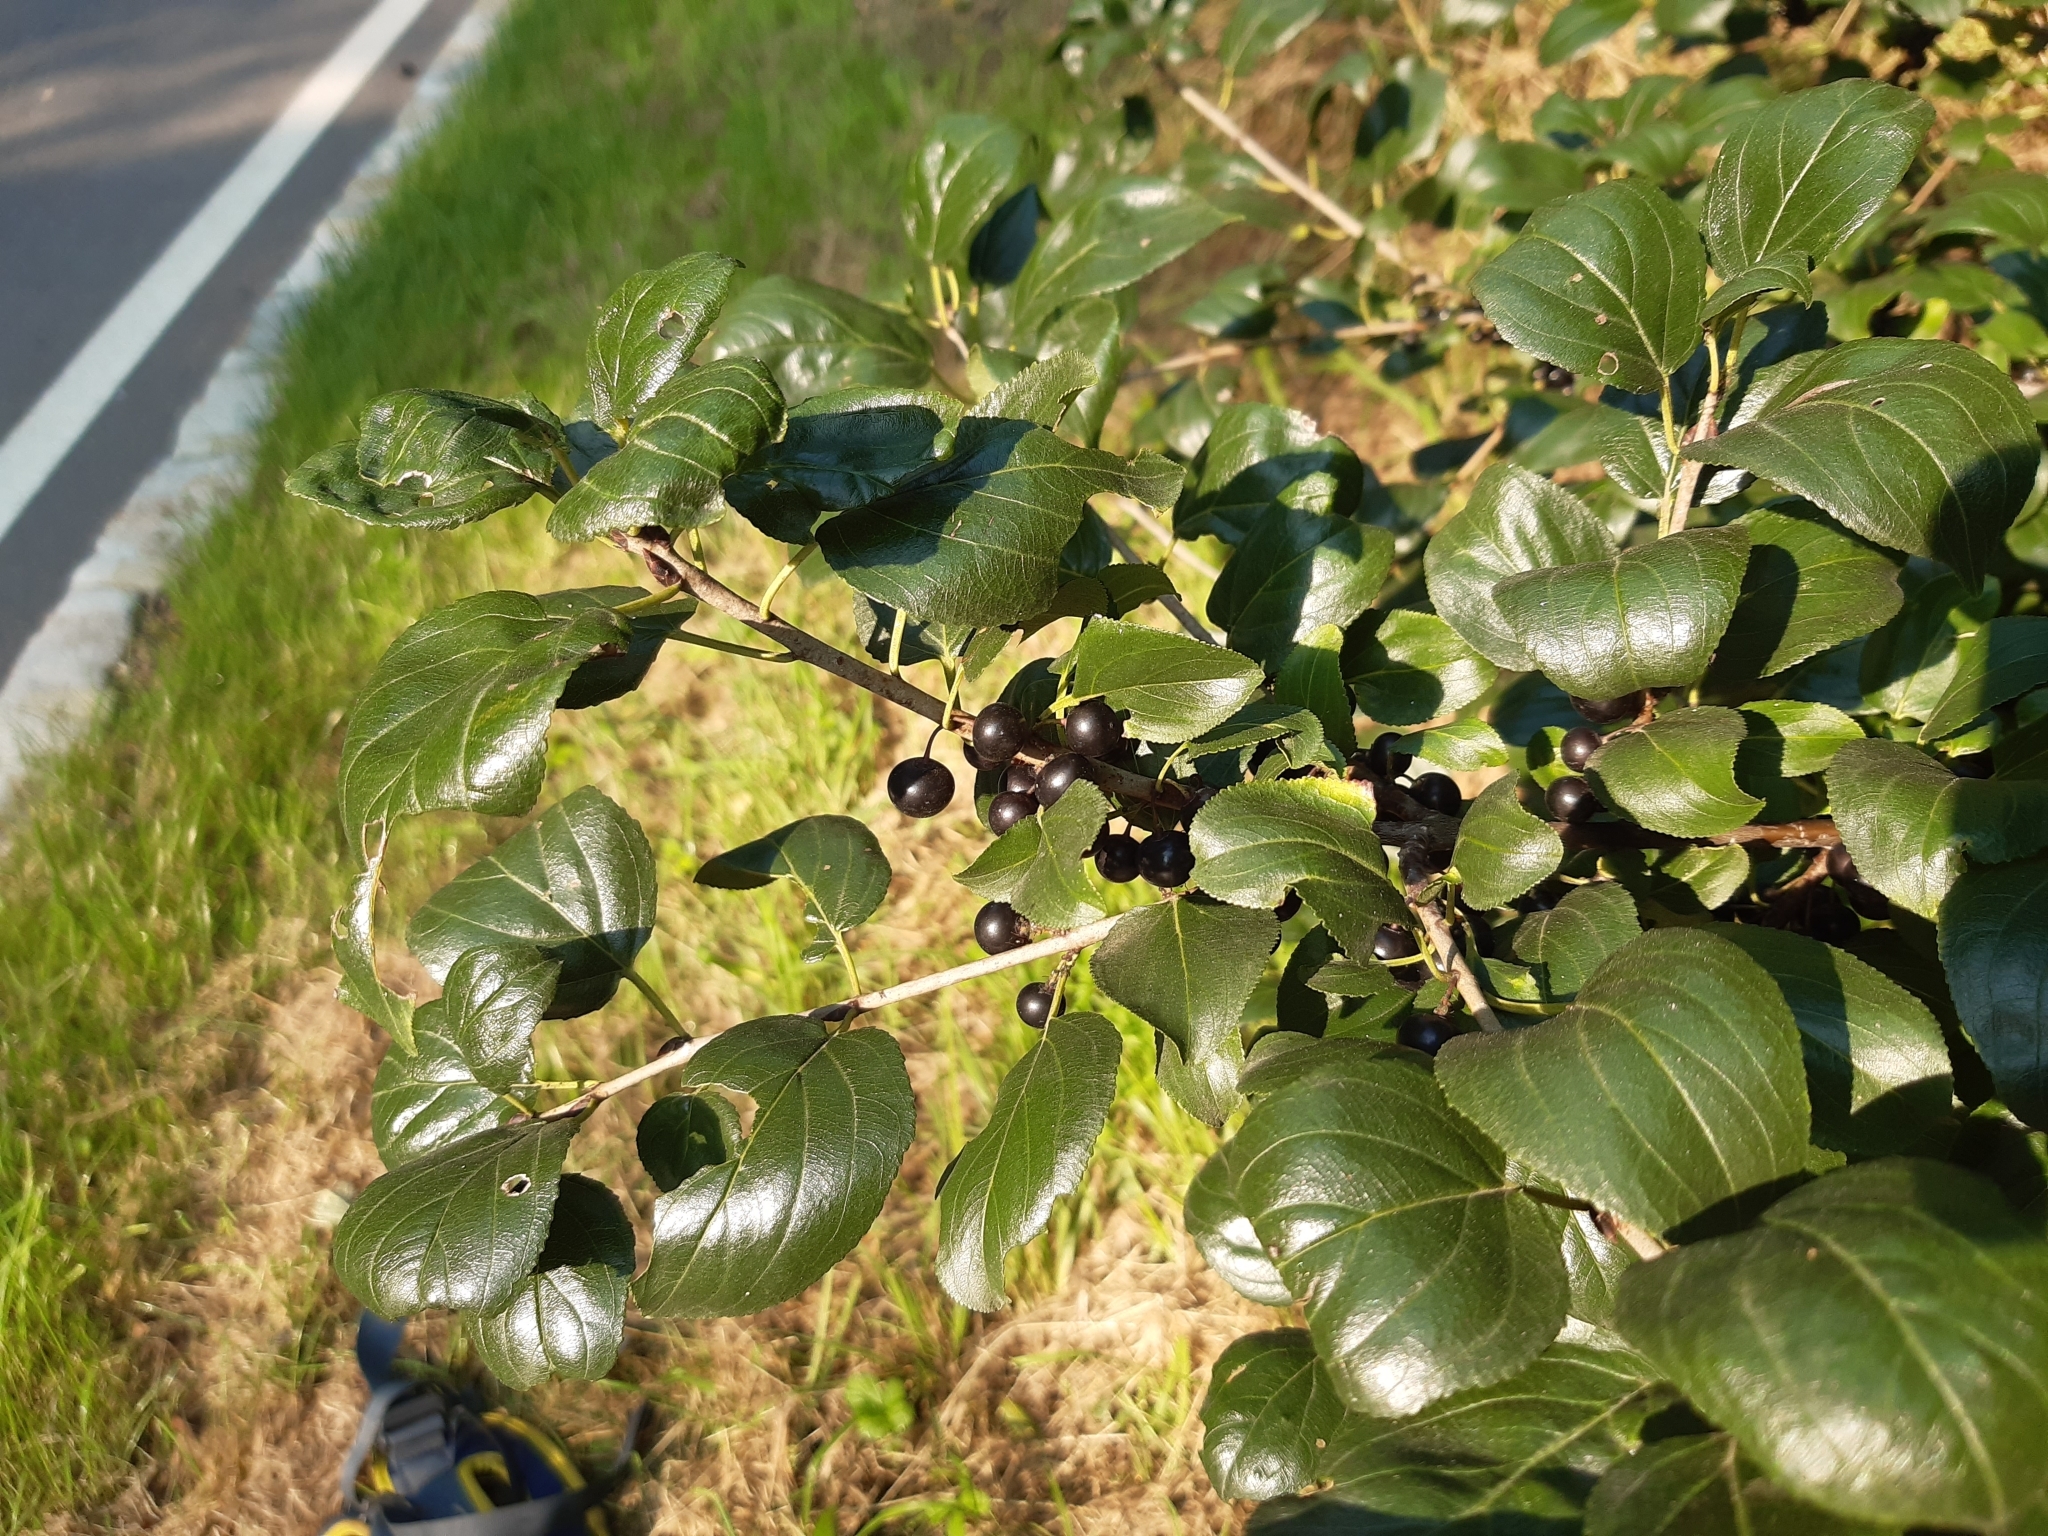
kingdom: Plantae
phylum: Tracheophyta
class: Magnoliopsida
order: Rosales
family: Rhamnaceae
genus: Rhamnus
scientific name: Rhamnus cathartica
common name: Common buckthorn
